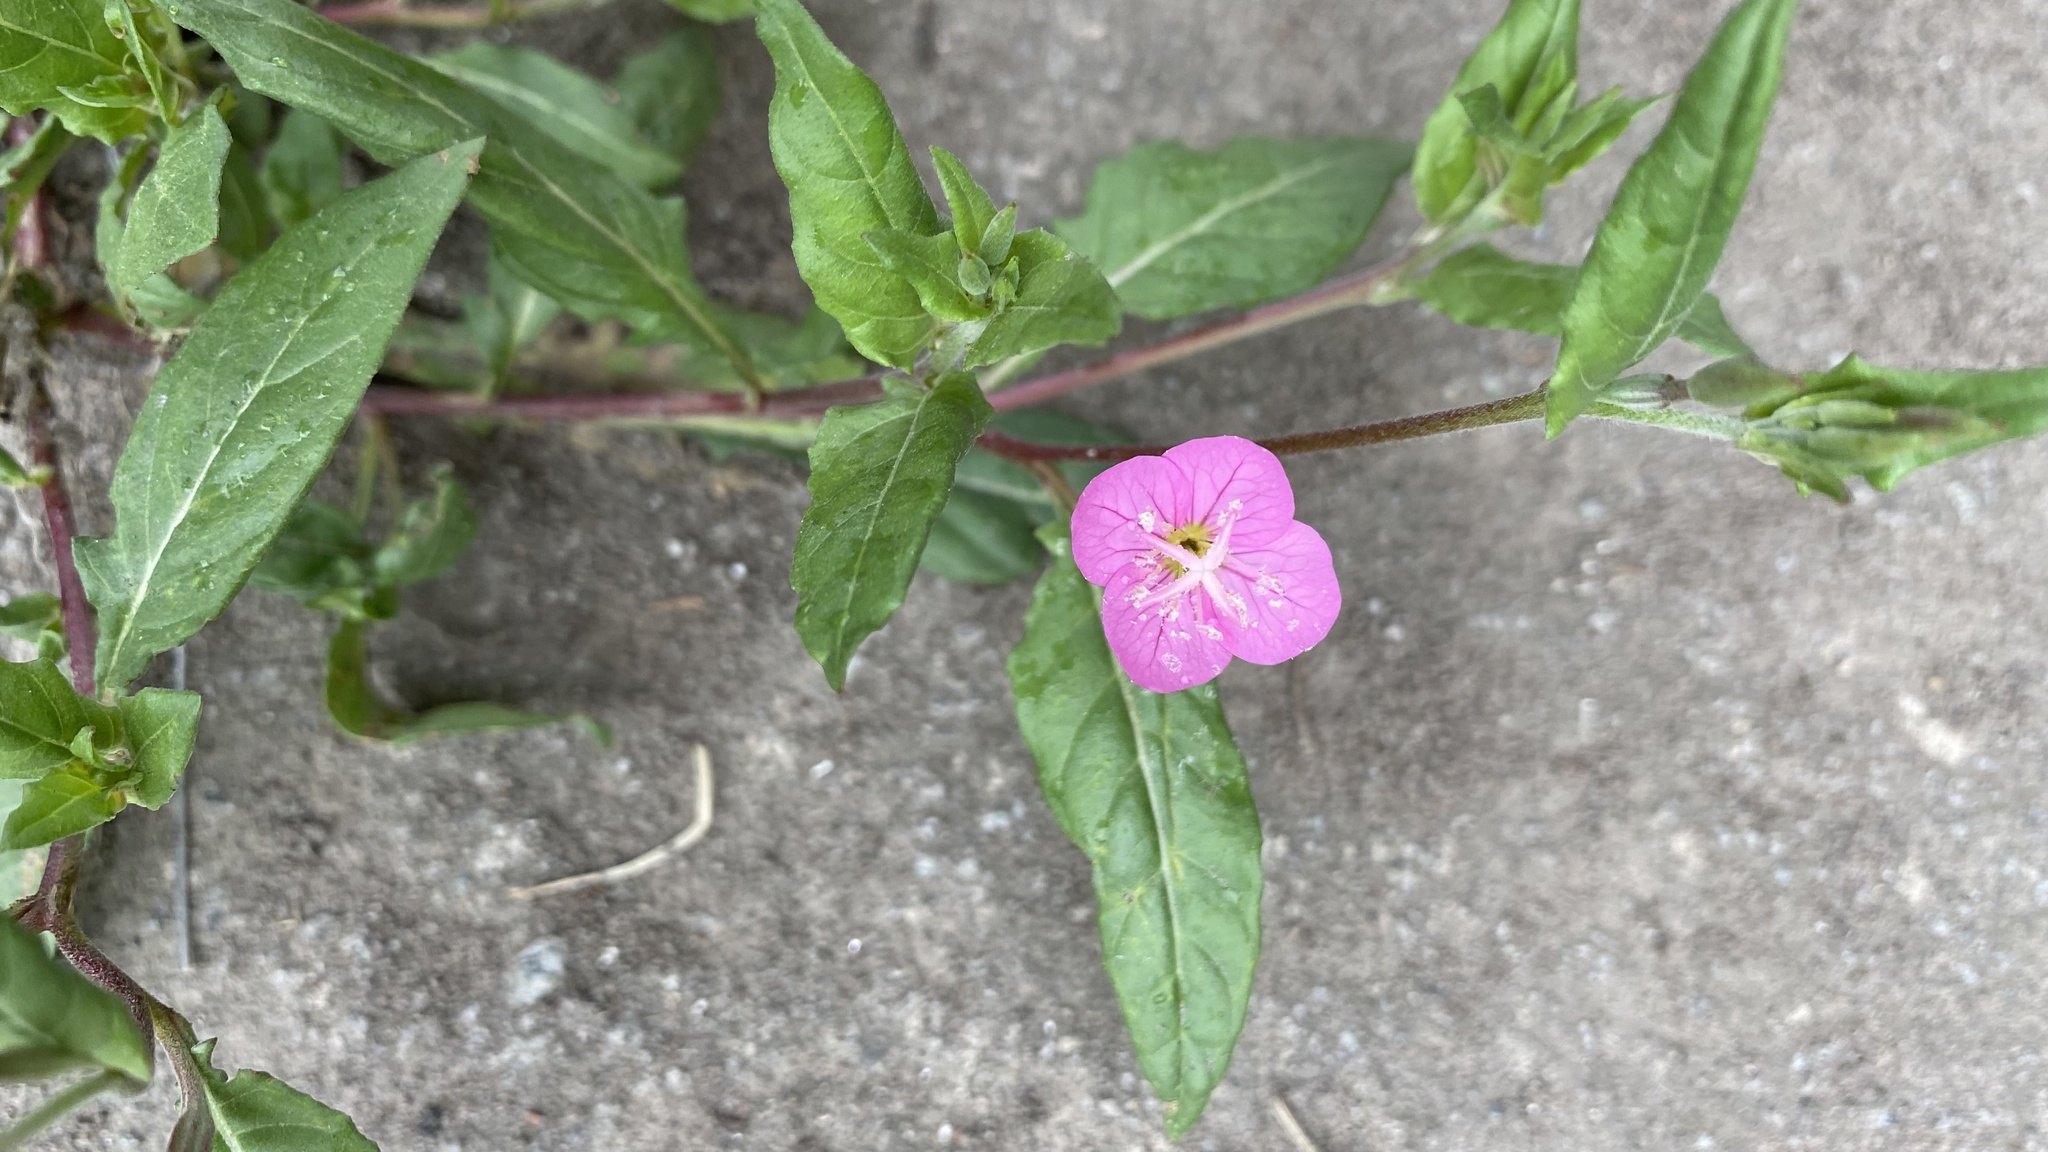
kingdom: Plantae
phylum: Tracheophyta
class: Magnoliopsida
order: Myrtales
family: Onagraceae
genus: Oenothera
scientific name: Oenothera rosea
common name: Rosy evening-primrose
